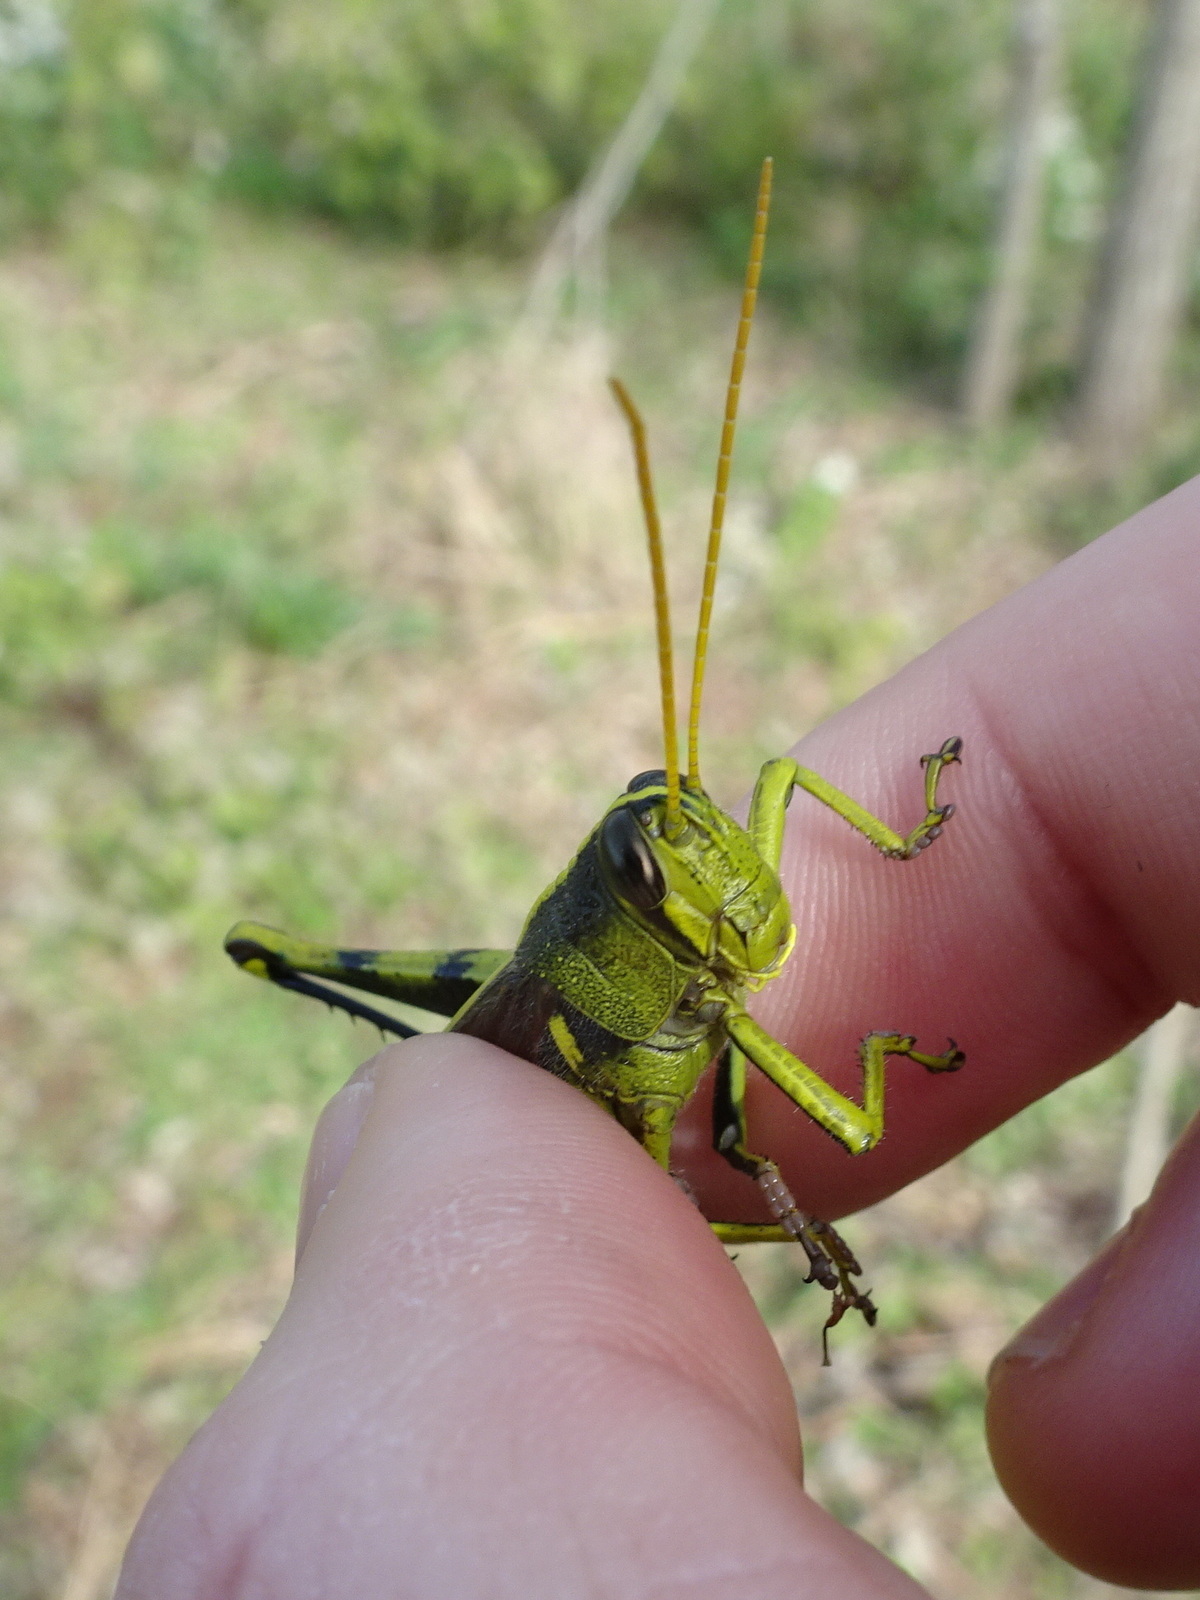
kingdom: Animalia
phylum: Arthropoda
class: Insecta
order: Orthoptera
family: Acrididae
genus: Schistocerca
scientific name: Schistocerca obscura
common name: Obscure bird grasshopper
